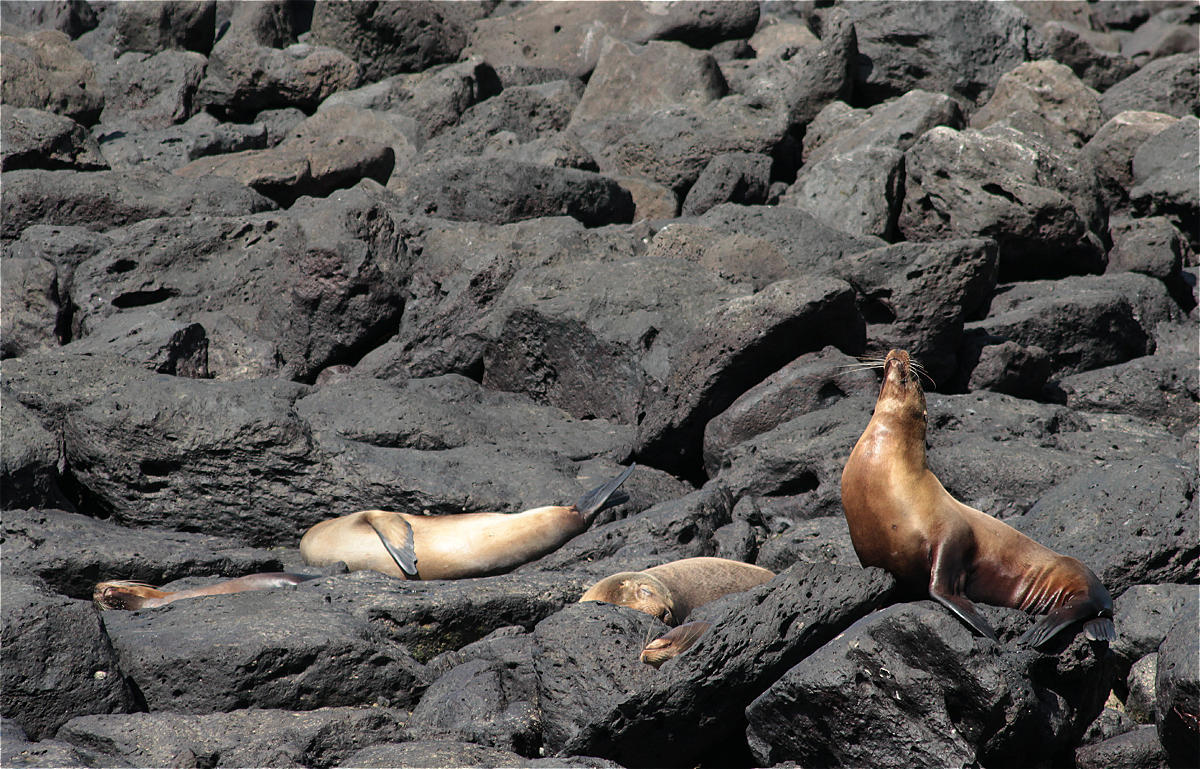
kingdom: Animalia
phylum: Chordata
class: Mammalia
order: Carnivora
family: Otariidae
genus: Zalophus
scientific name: Zalophus wollebaeki
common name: Galapagos sea lion
